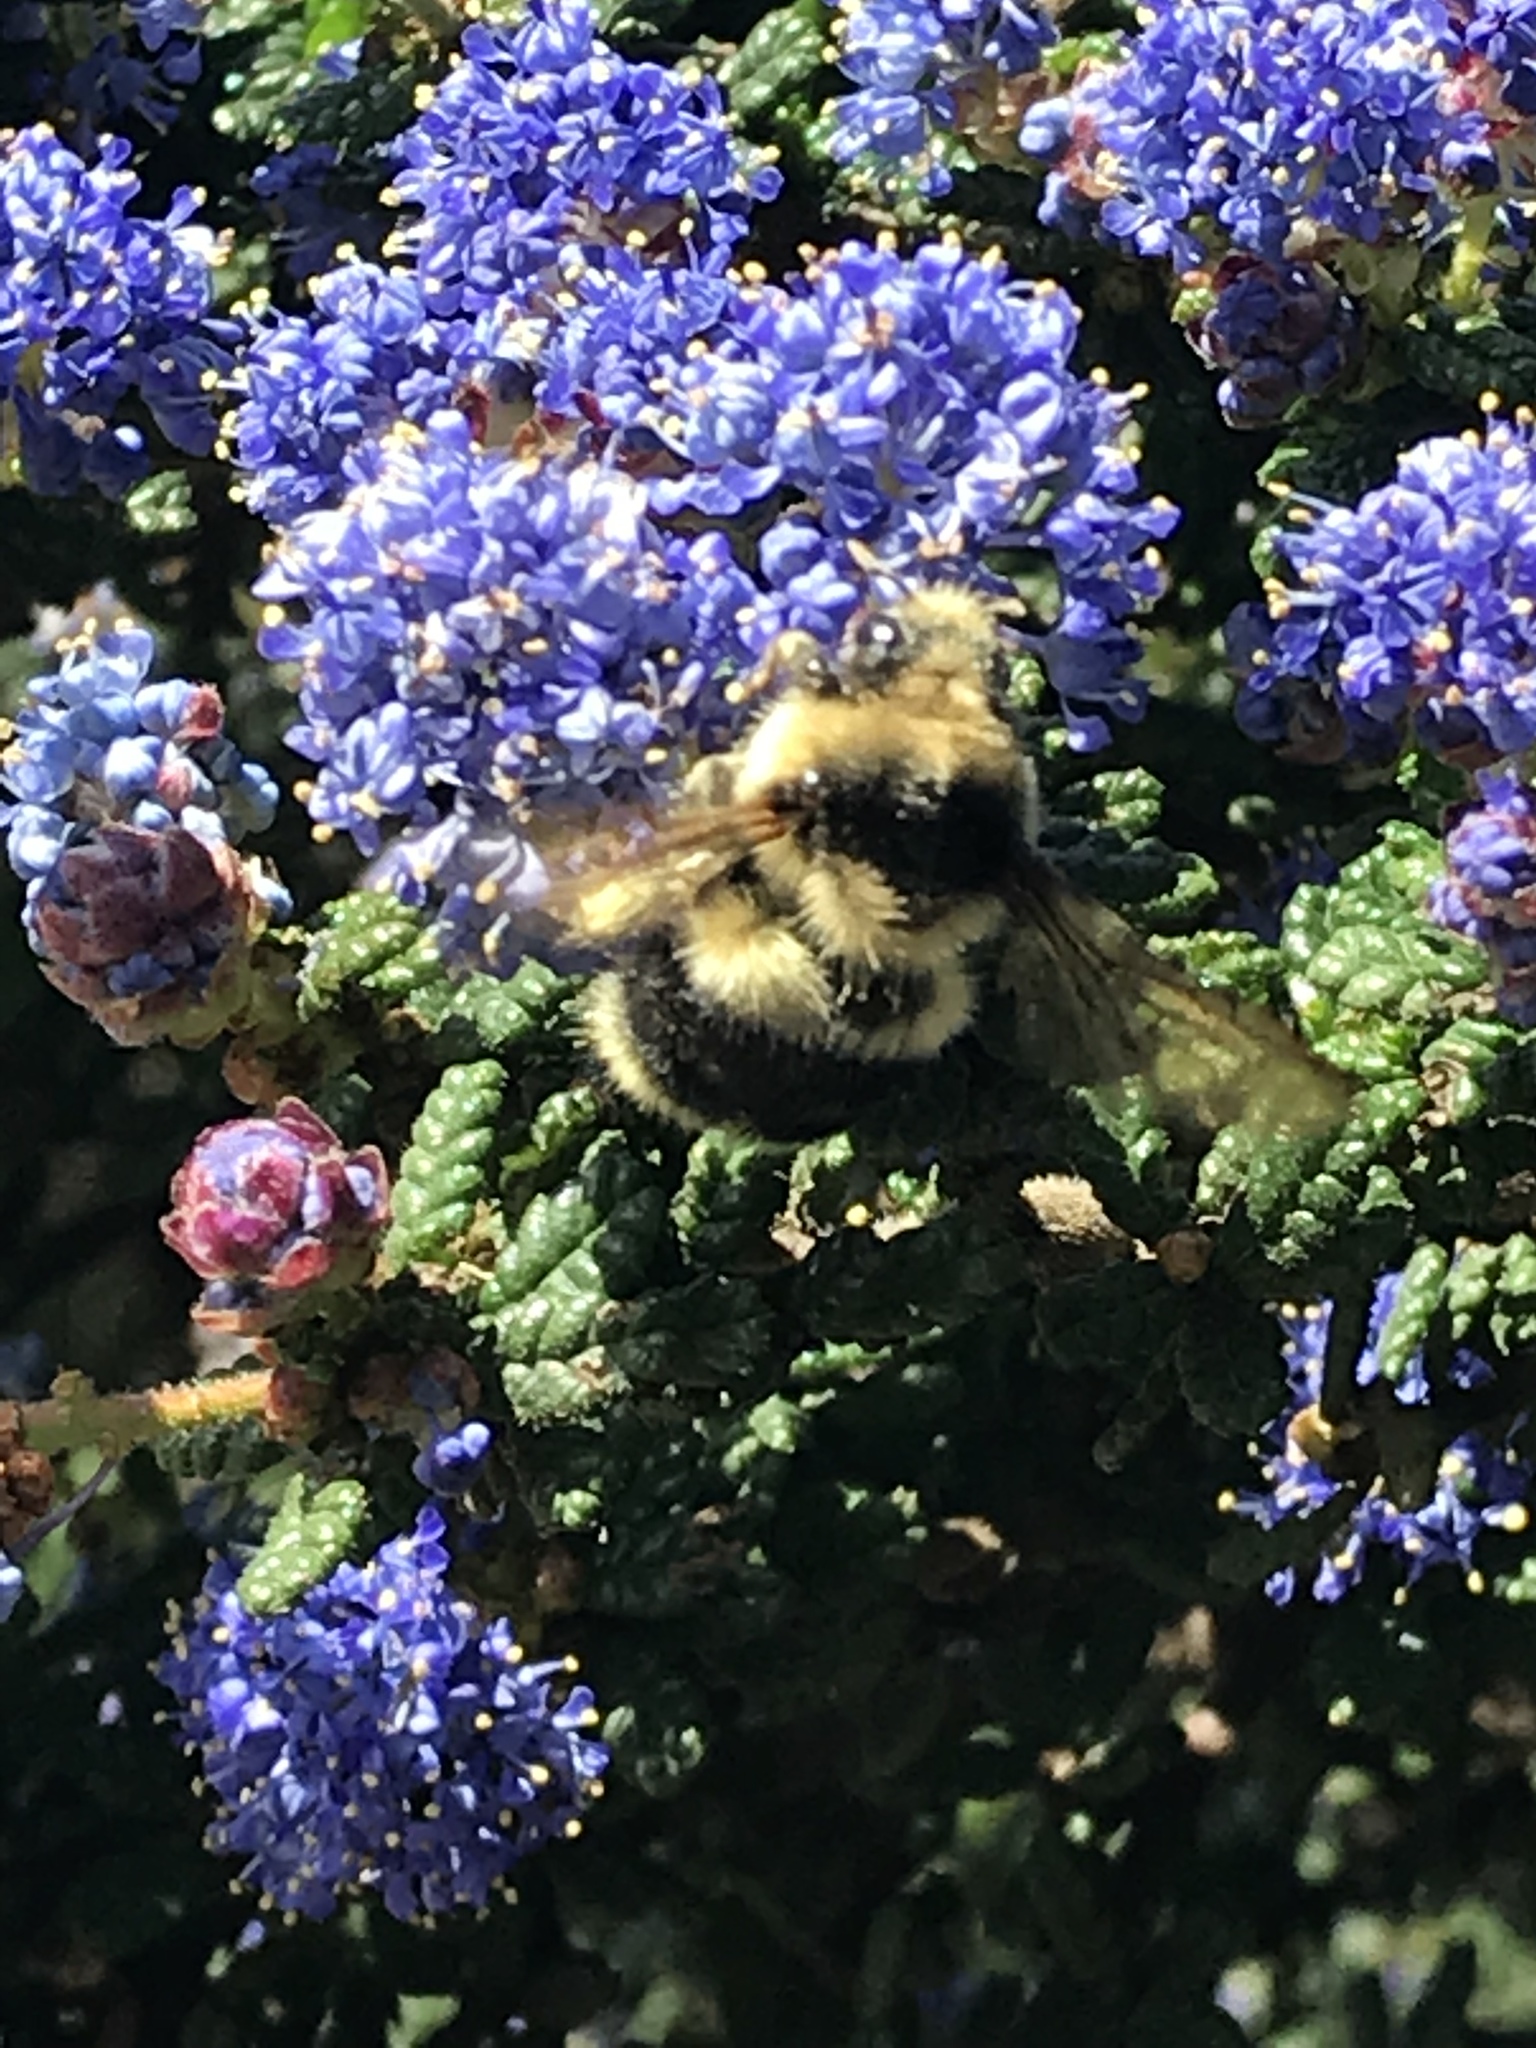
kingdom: Animalia
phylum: Arthropoda
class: Insecta
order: Hymenoptera
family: Apidae
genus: Bombus
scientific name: Bombus melanopygus
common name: Black tail bumble bee
